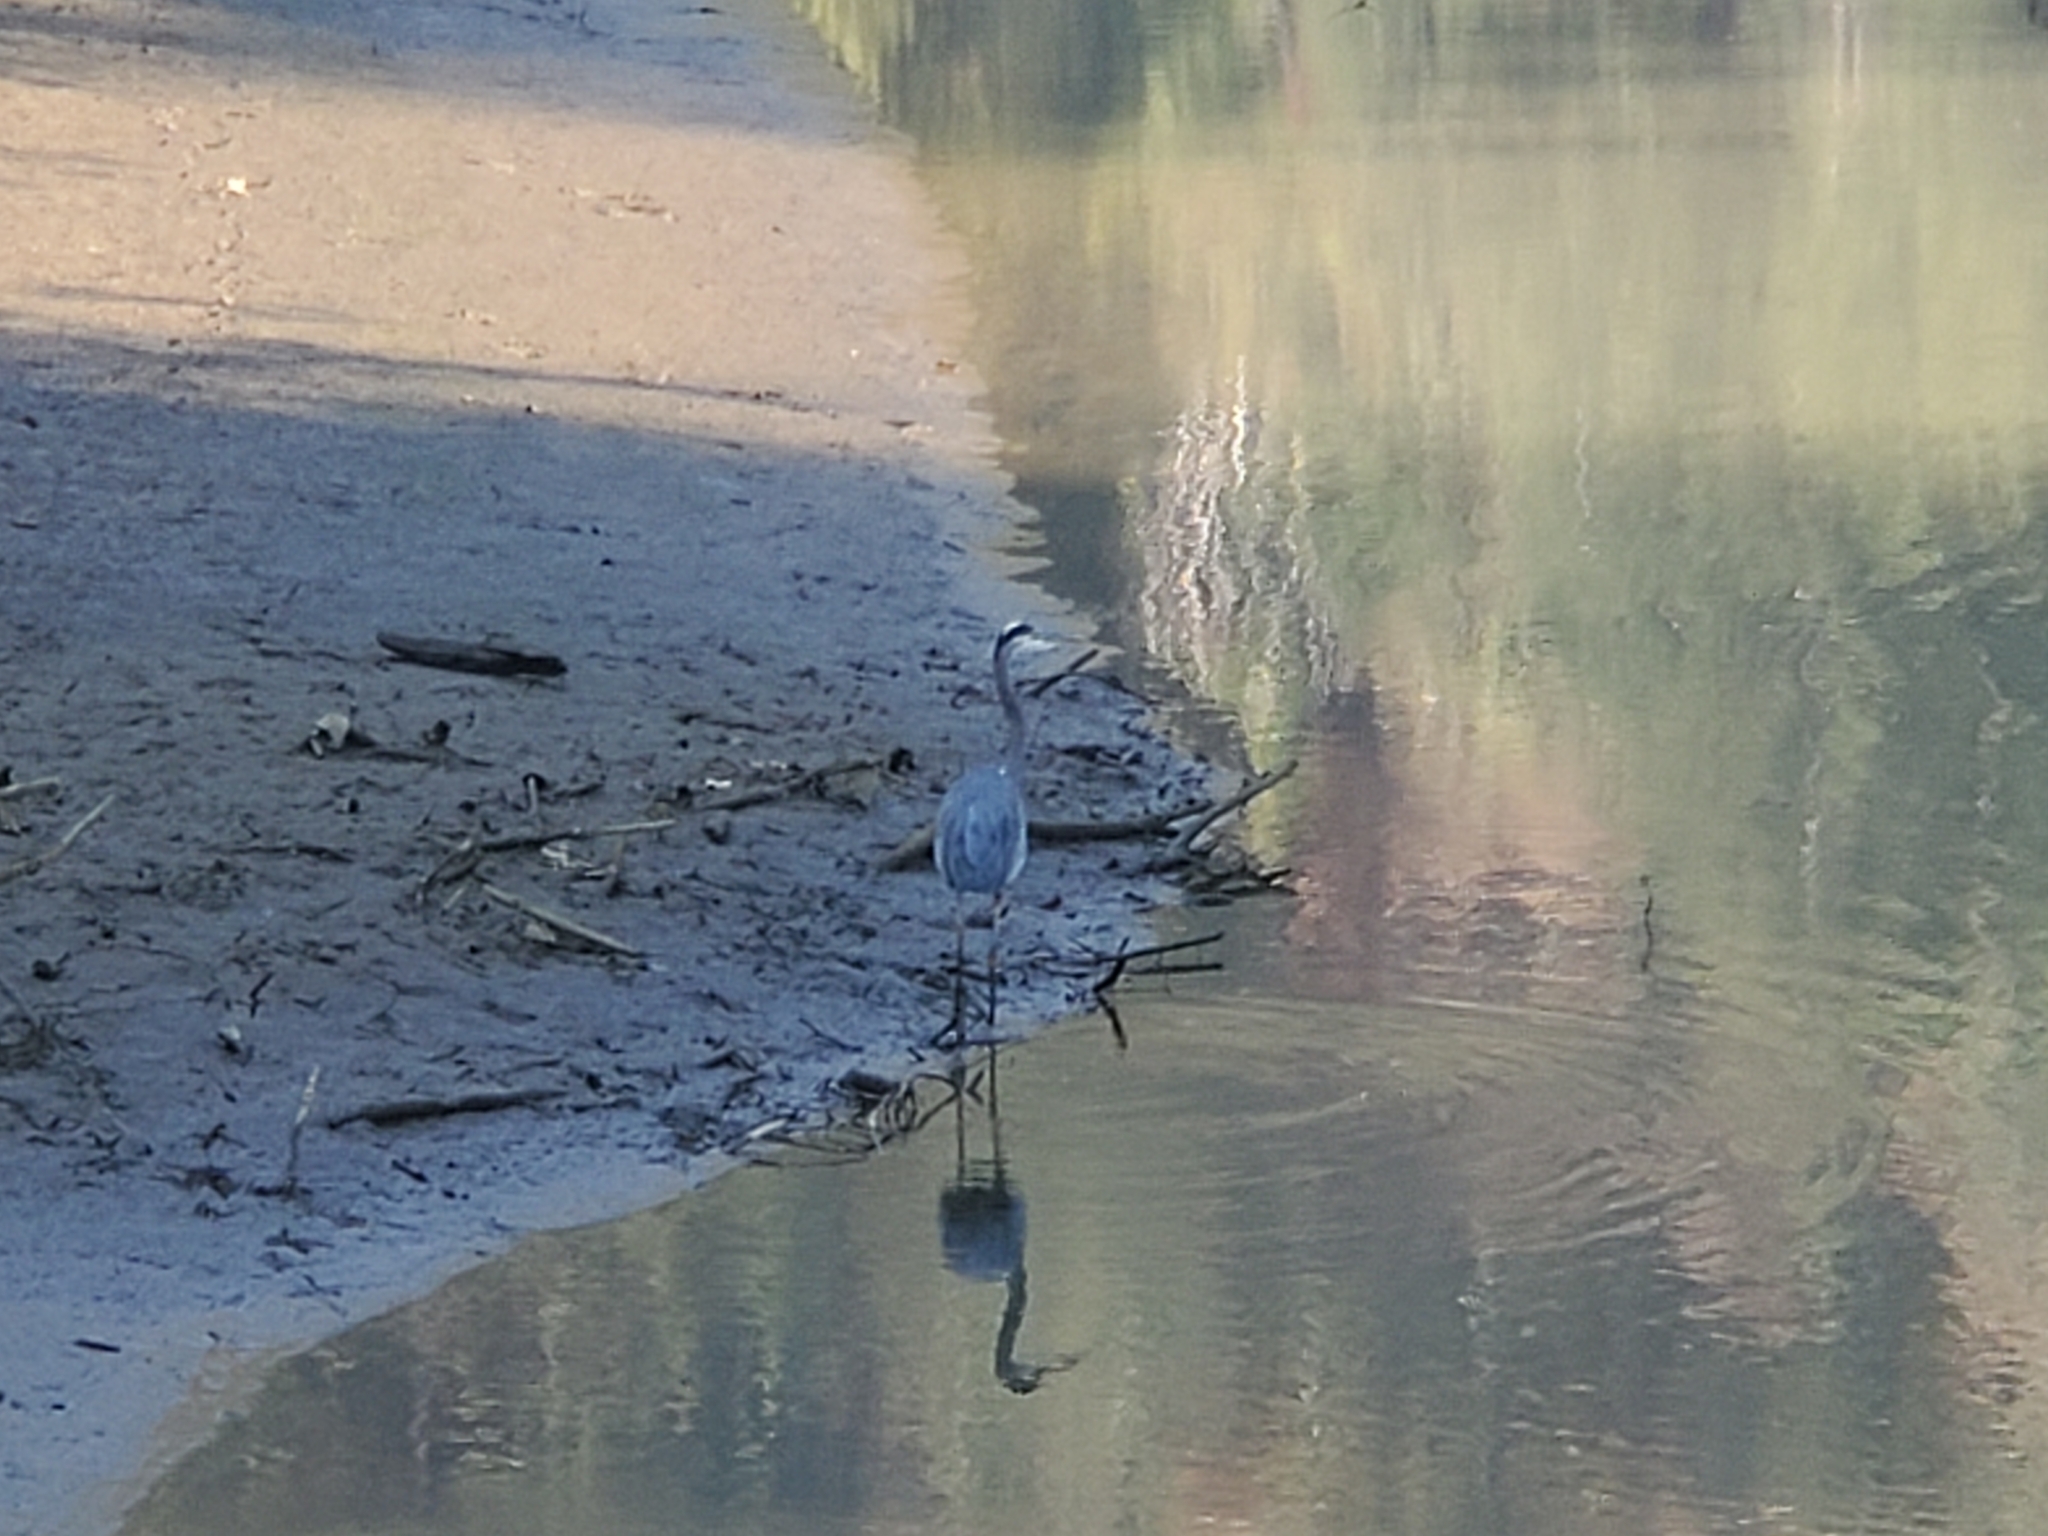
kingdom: Animalia
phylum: Chordata
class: Aves
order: Pelecaniformes
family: Ardeidae
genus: Ardea
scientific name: Ardea herodias
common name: Great blue heron
